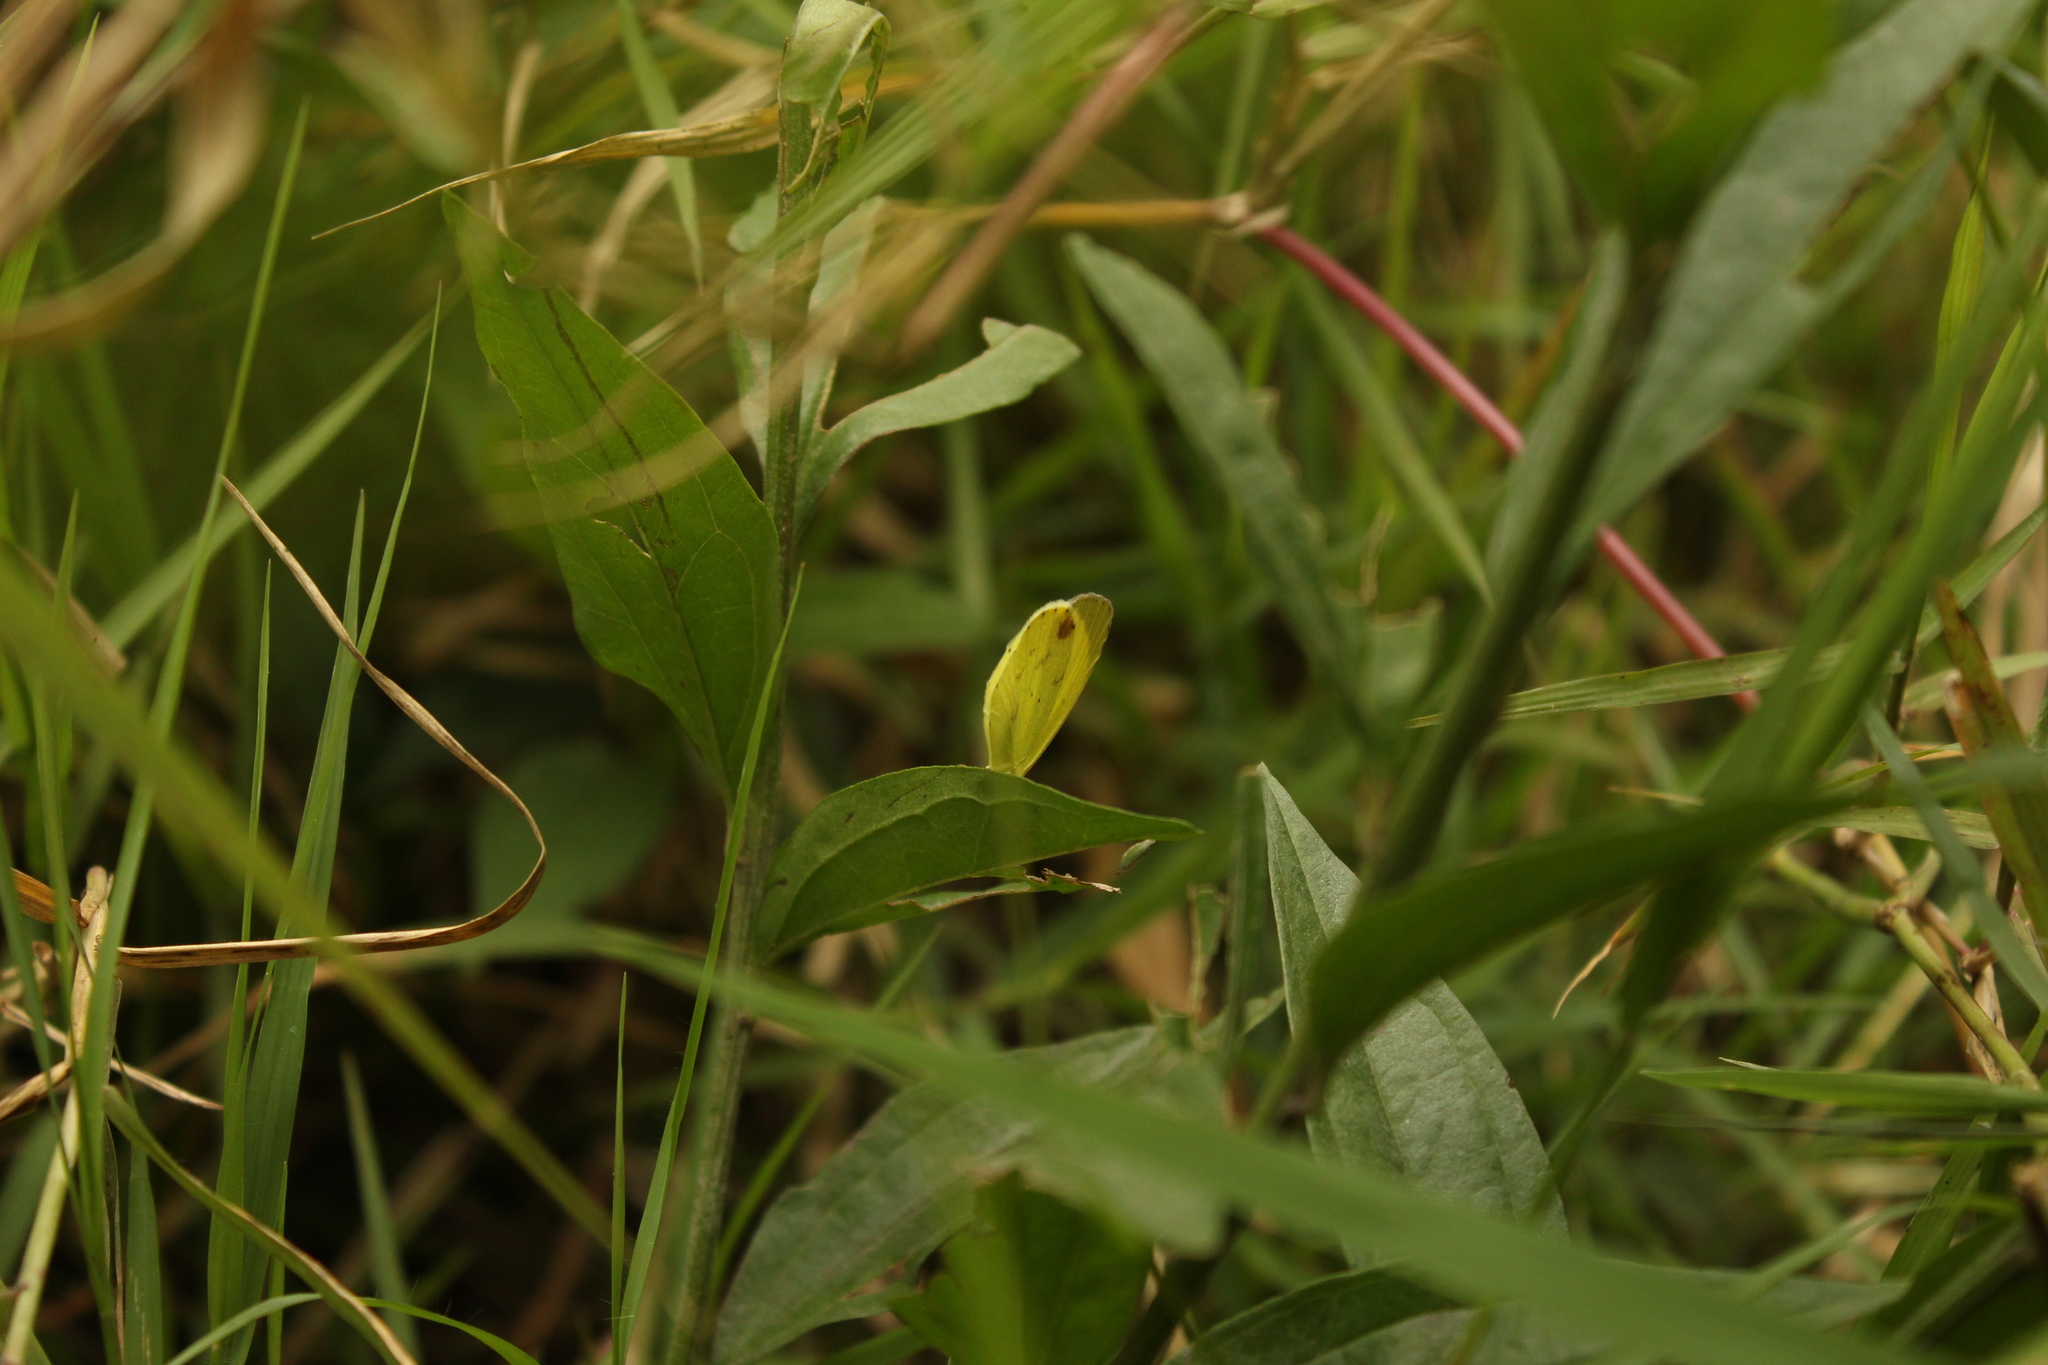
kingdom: Animalia
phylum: Arthropoda
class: Insecta
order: Lepidoptera
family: Pieridae
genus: Pyrisitia
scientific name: Pyrisitia nise
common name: Mimosa yellow
